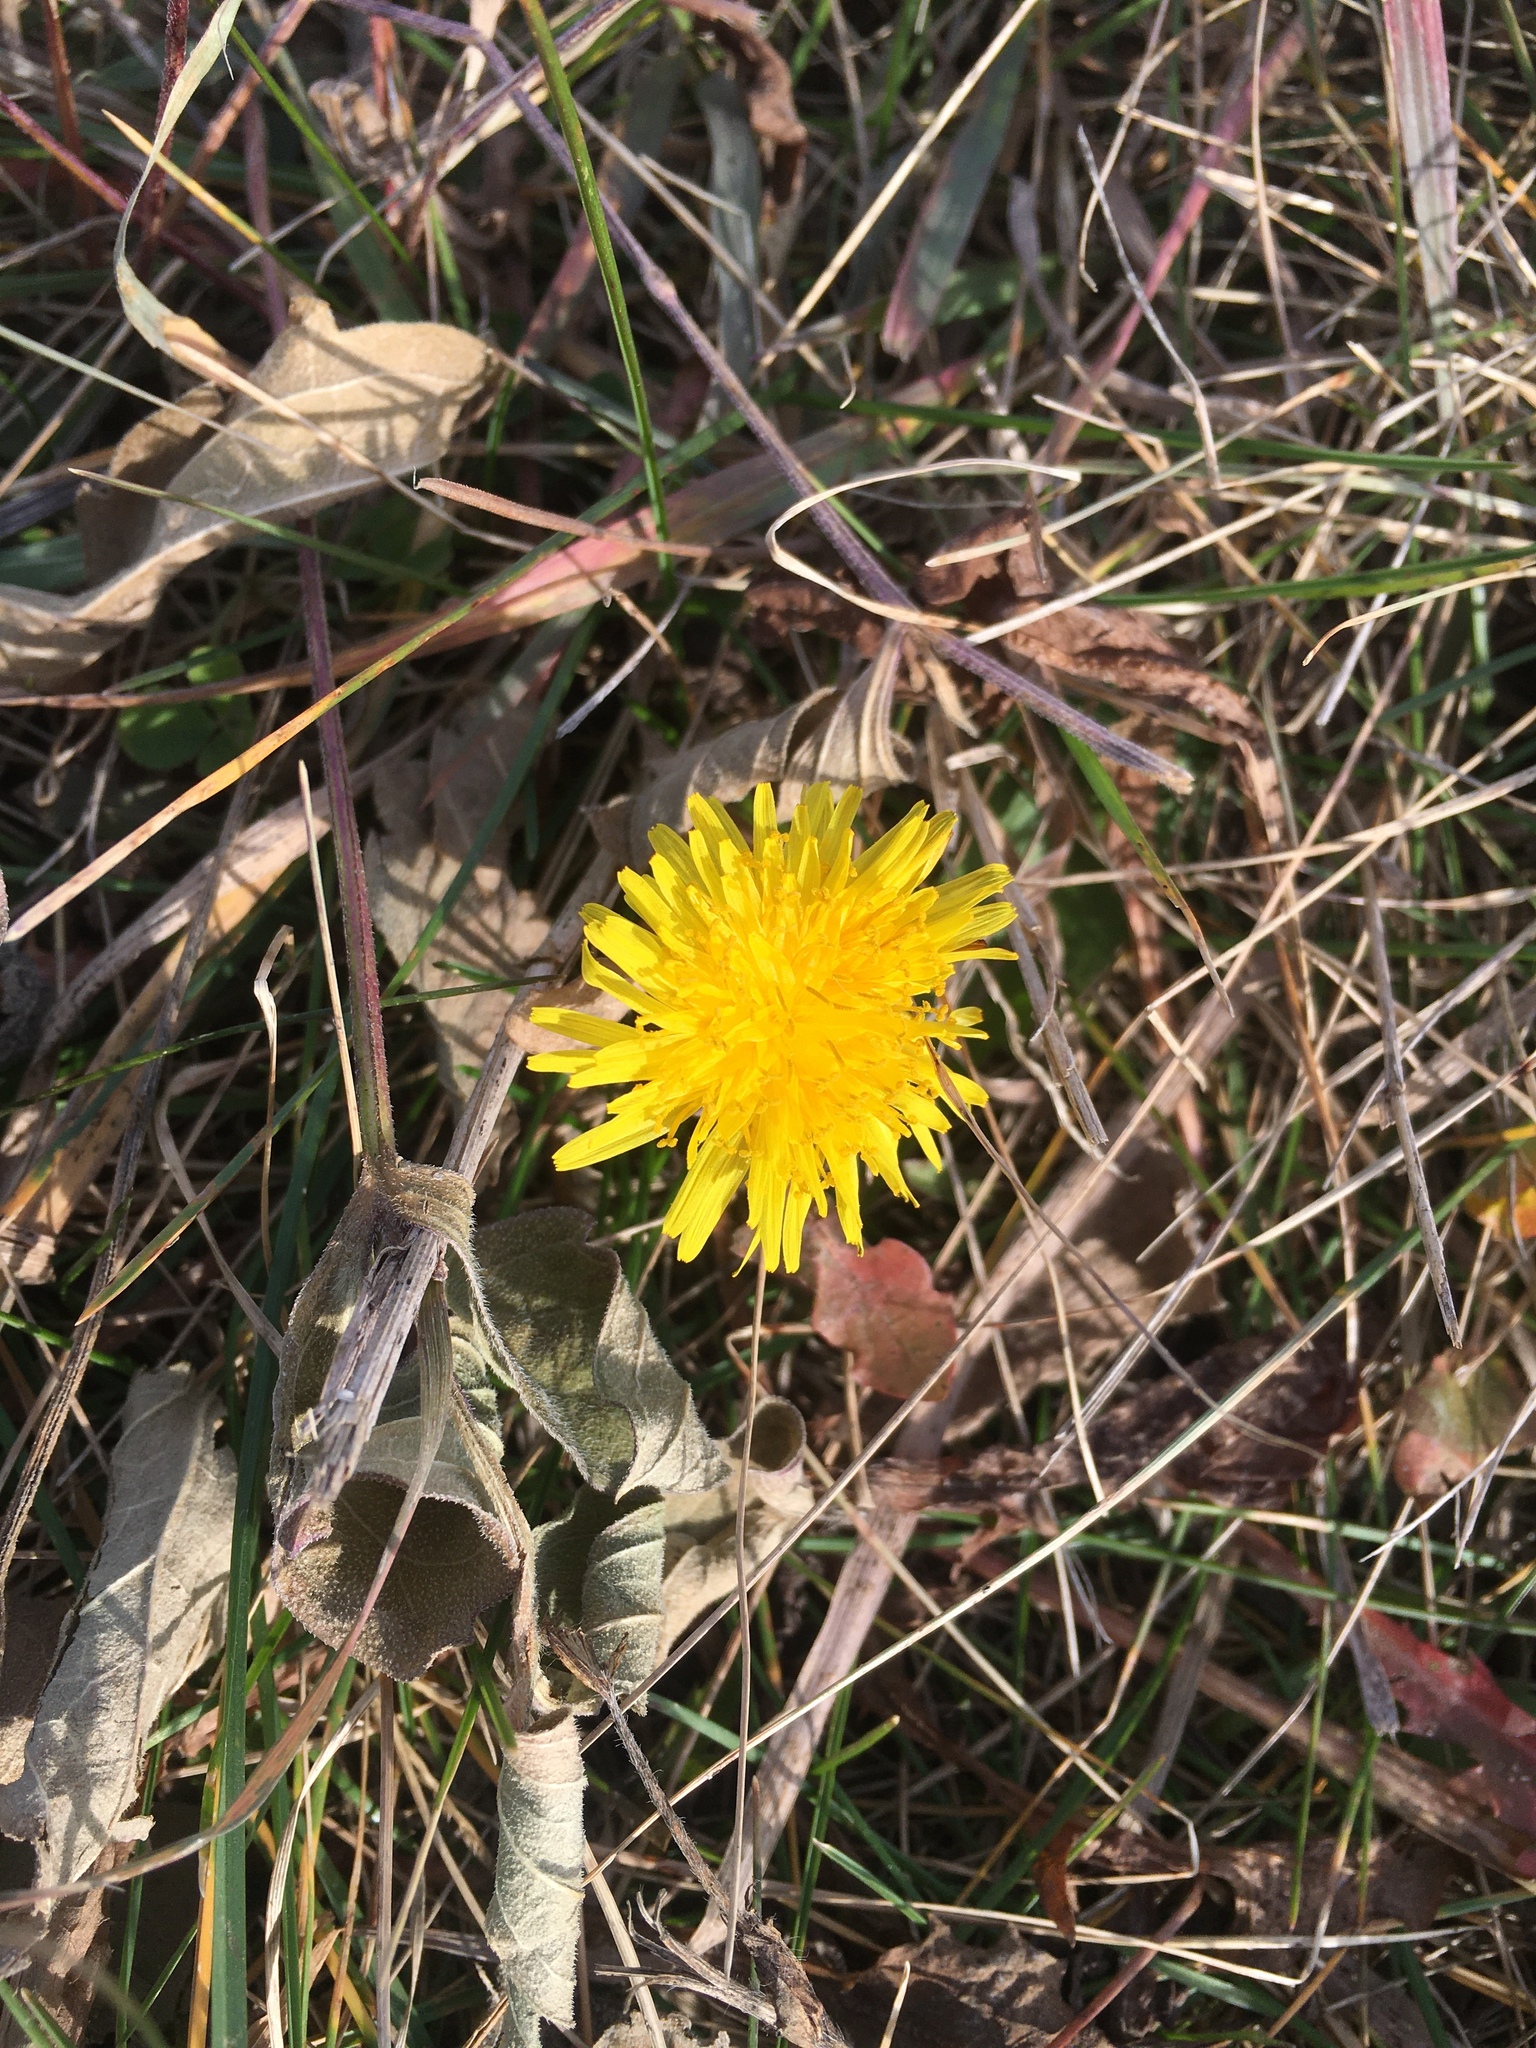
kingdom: Plantae
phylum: Tracheophyta
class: Magnoliopsida
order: Asterales
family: Asteraceae
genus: Taraxacum
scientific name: Taraxacum officinale
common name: Common dandelion
